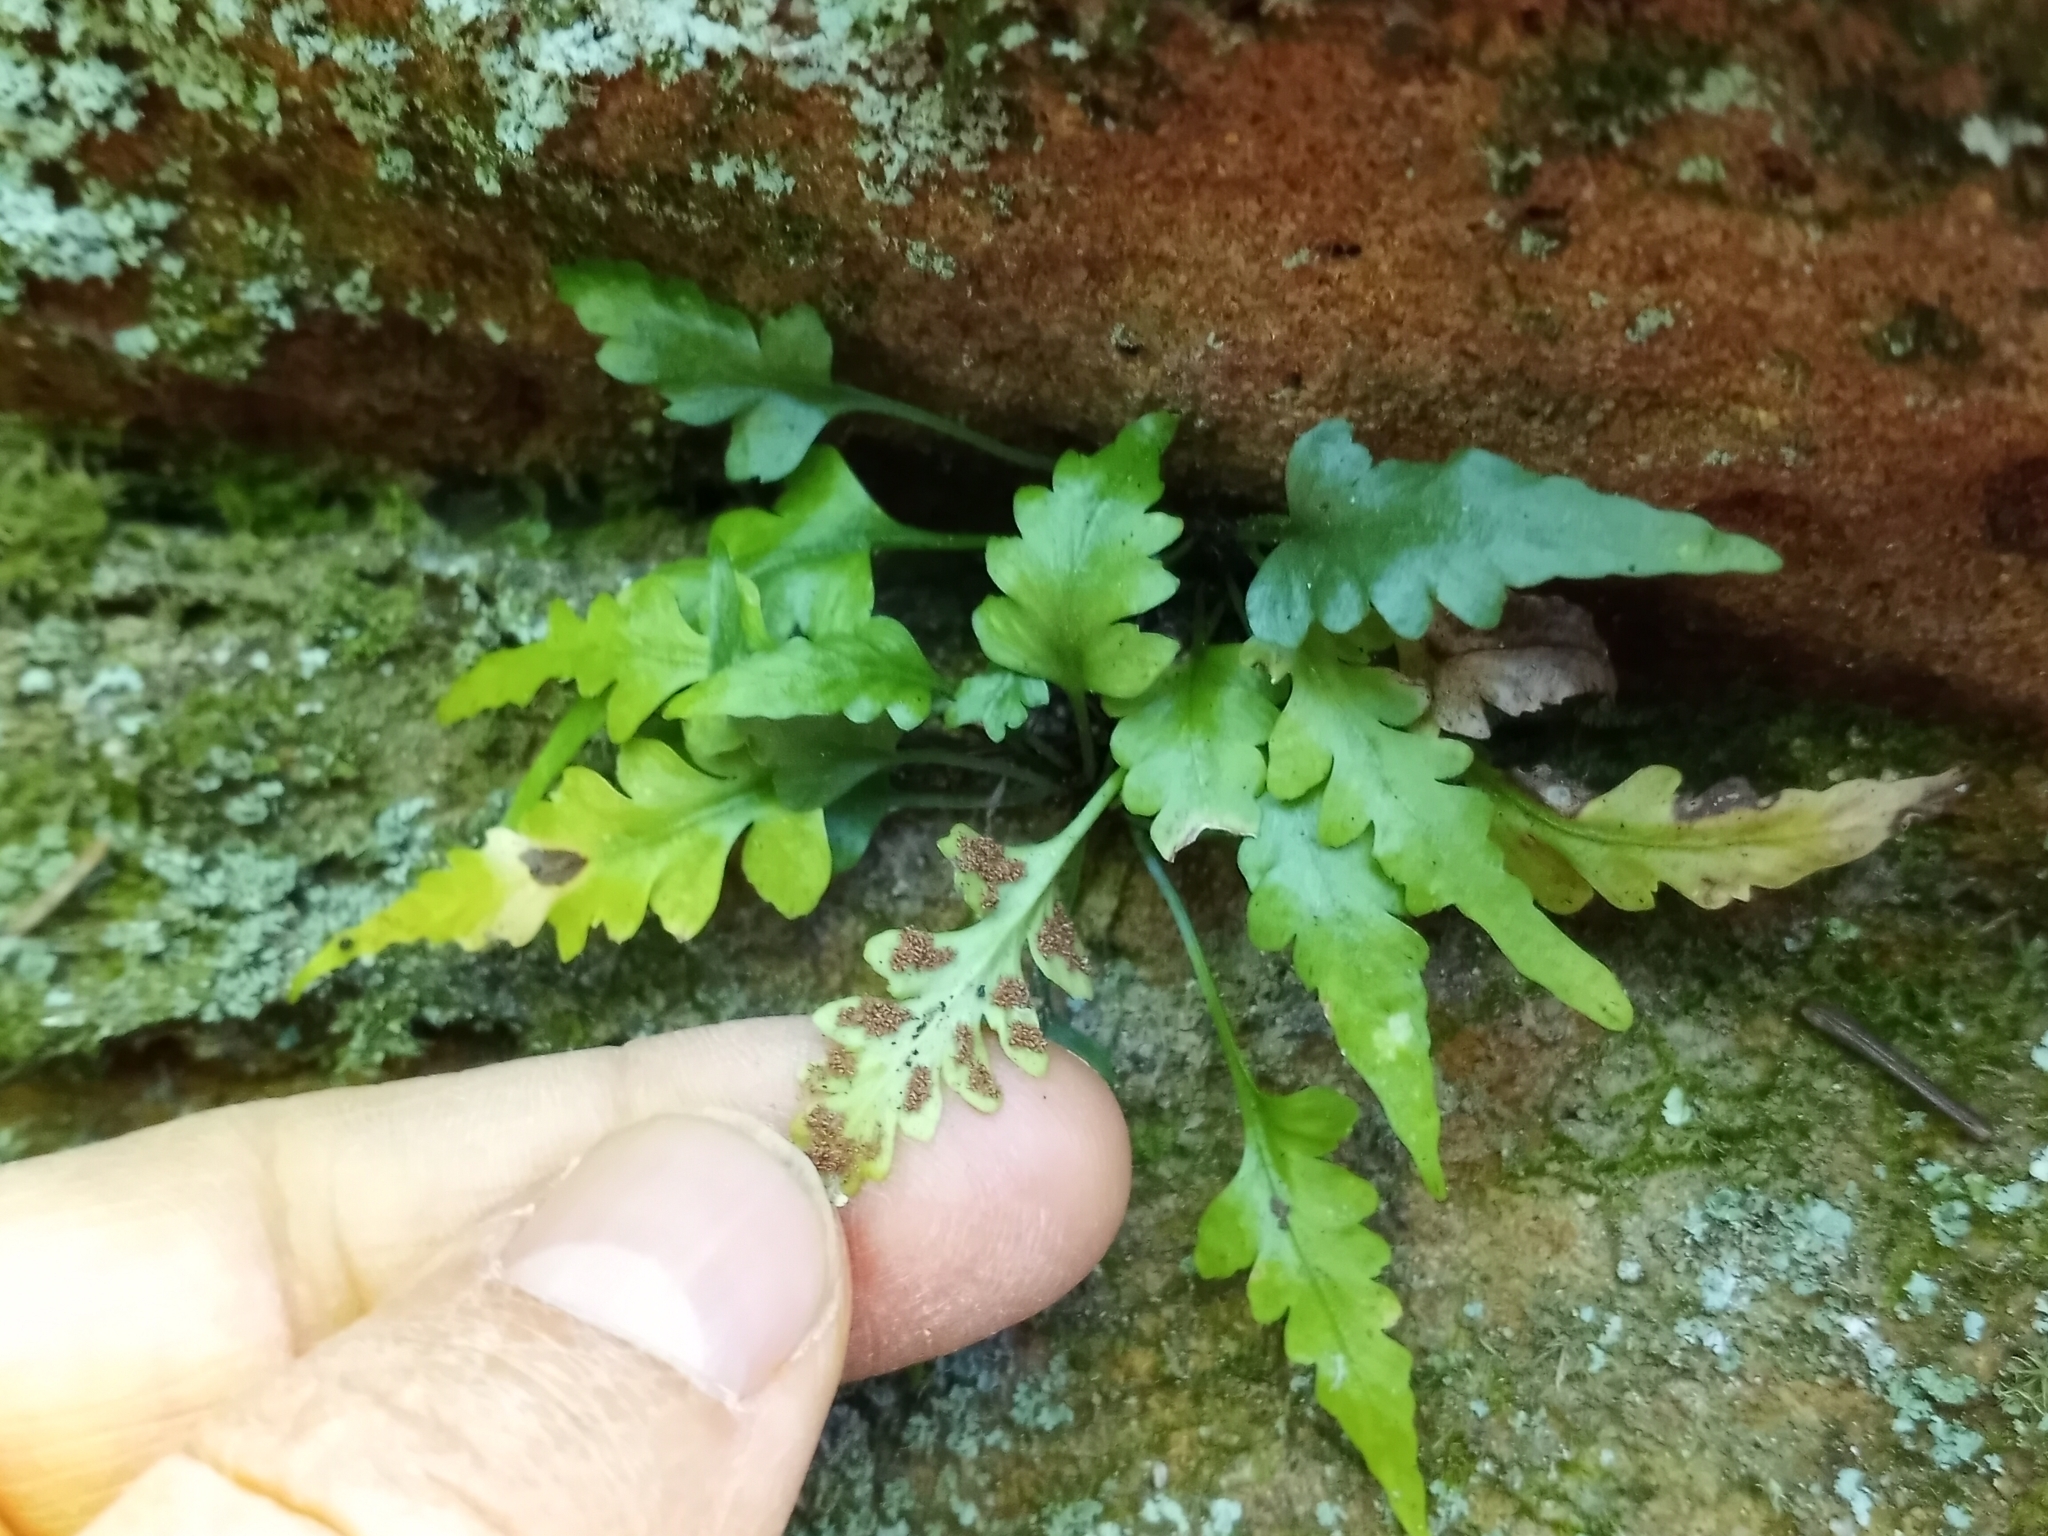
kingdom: Plantae
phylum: Tracheophyta
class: Polypodiopsida
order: Polypodiales
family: Aspleniaceae
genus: Asplenium
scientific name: Asplenium pinnatifidum
